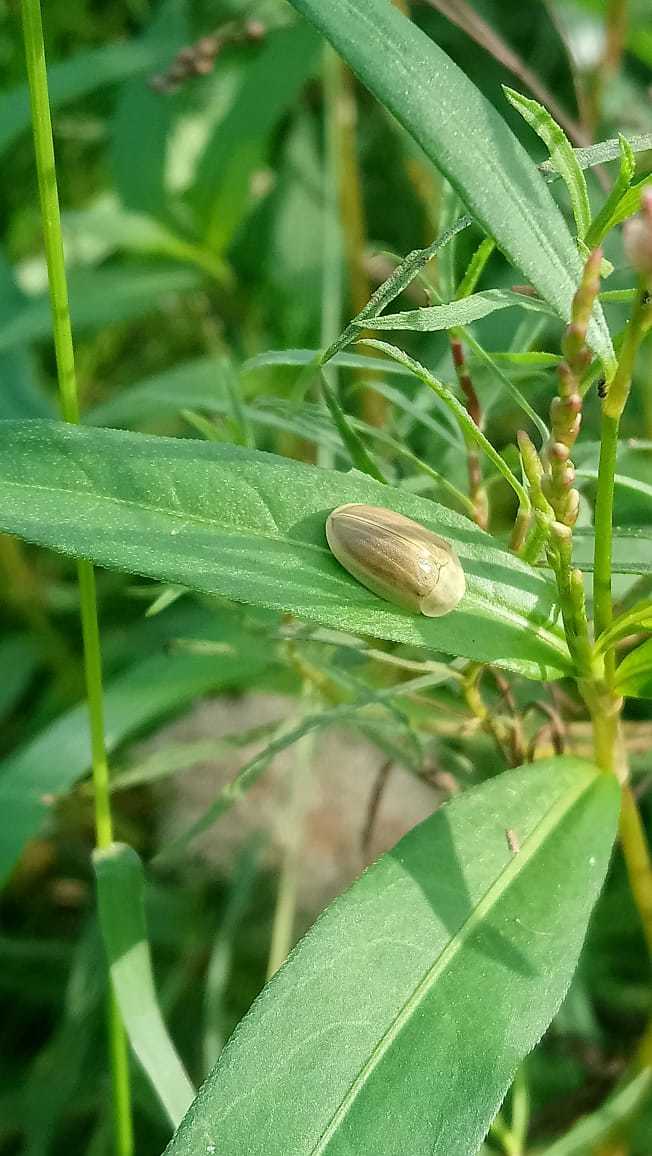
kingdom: Animalia
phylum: Arthropoda
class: Insecta
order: Coleoptera
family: Chrysomelidae
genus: Anacassis
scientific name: Anacassis fuscata
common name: Seepwillow flea beetle
